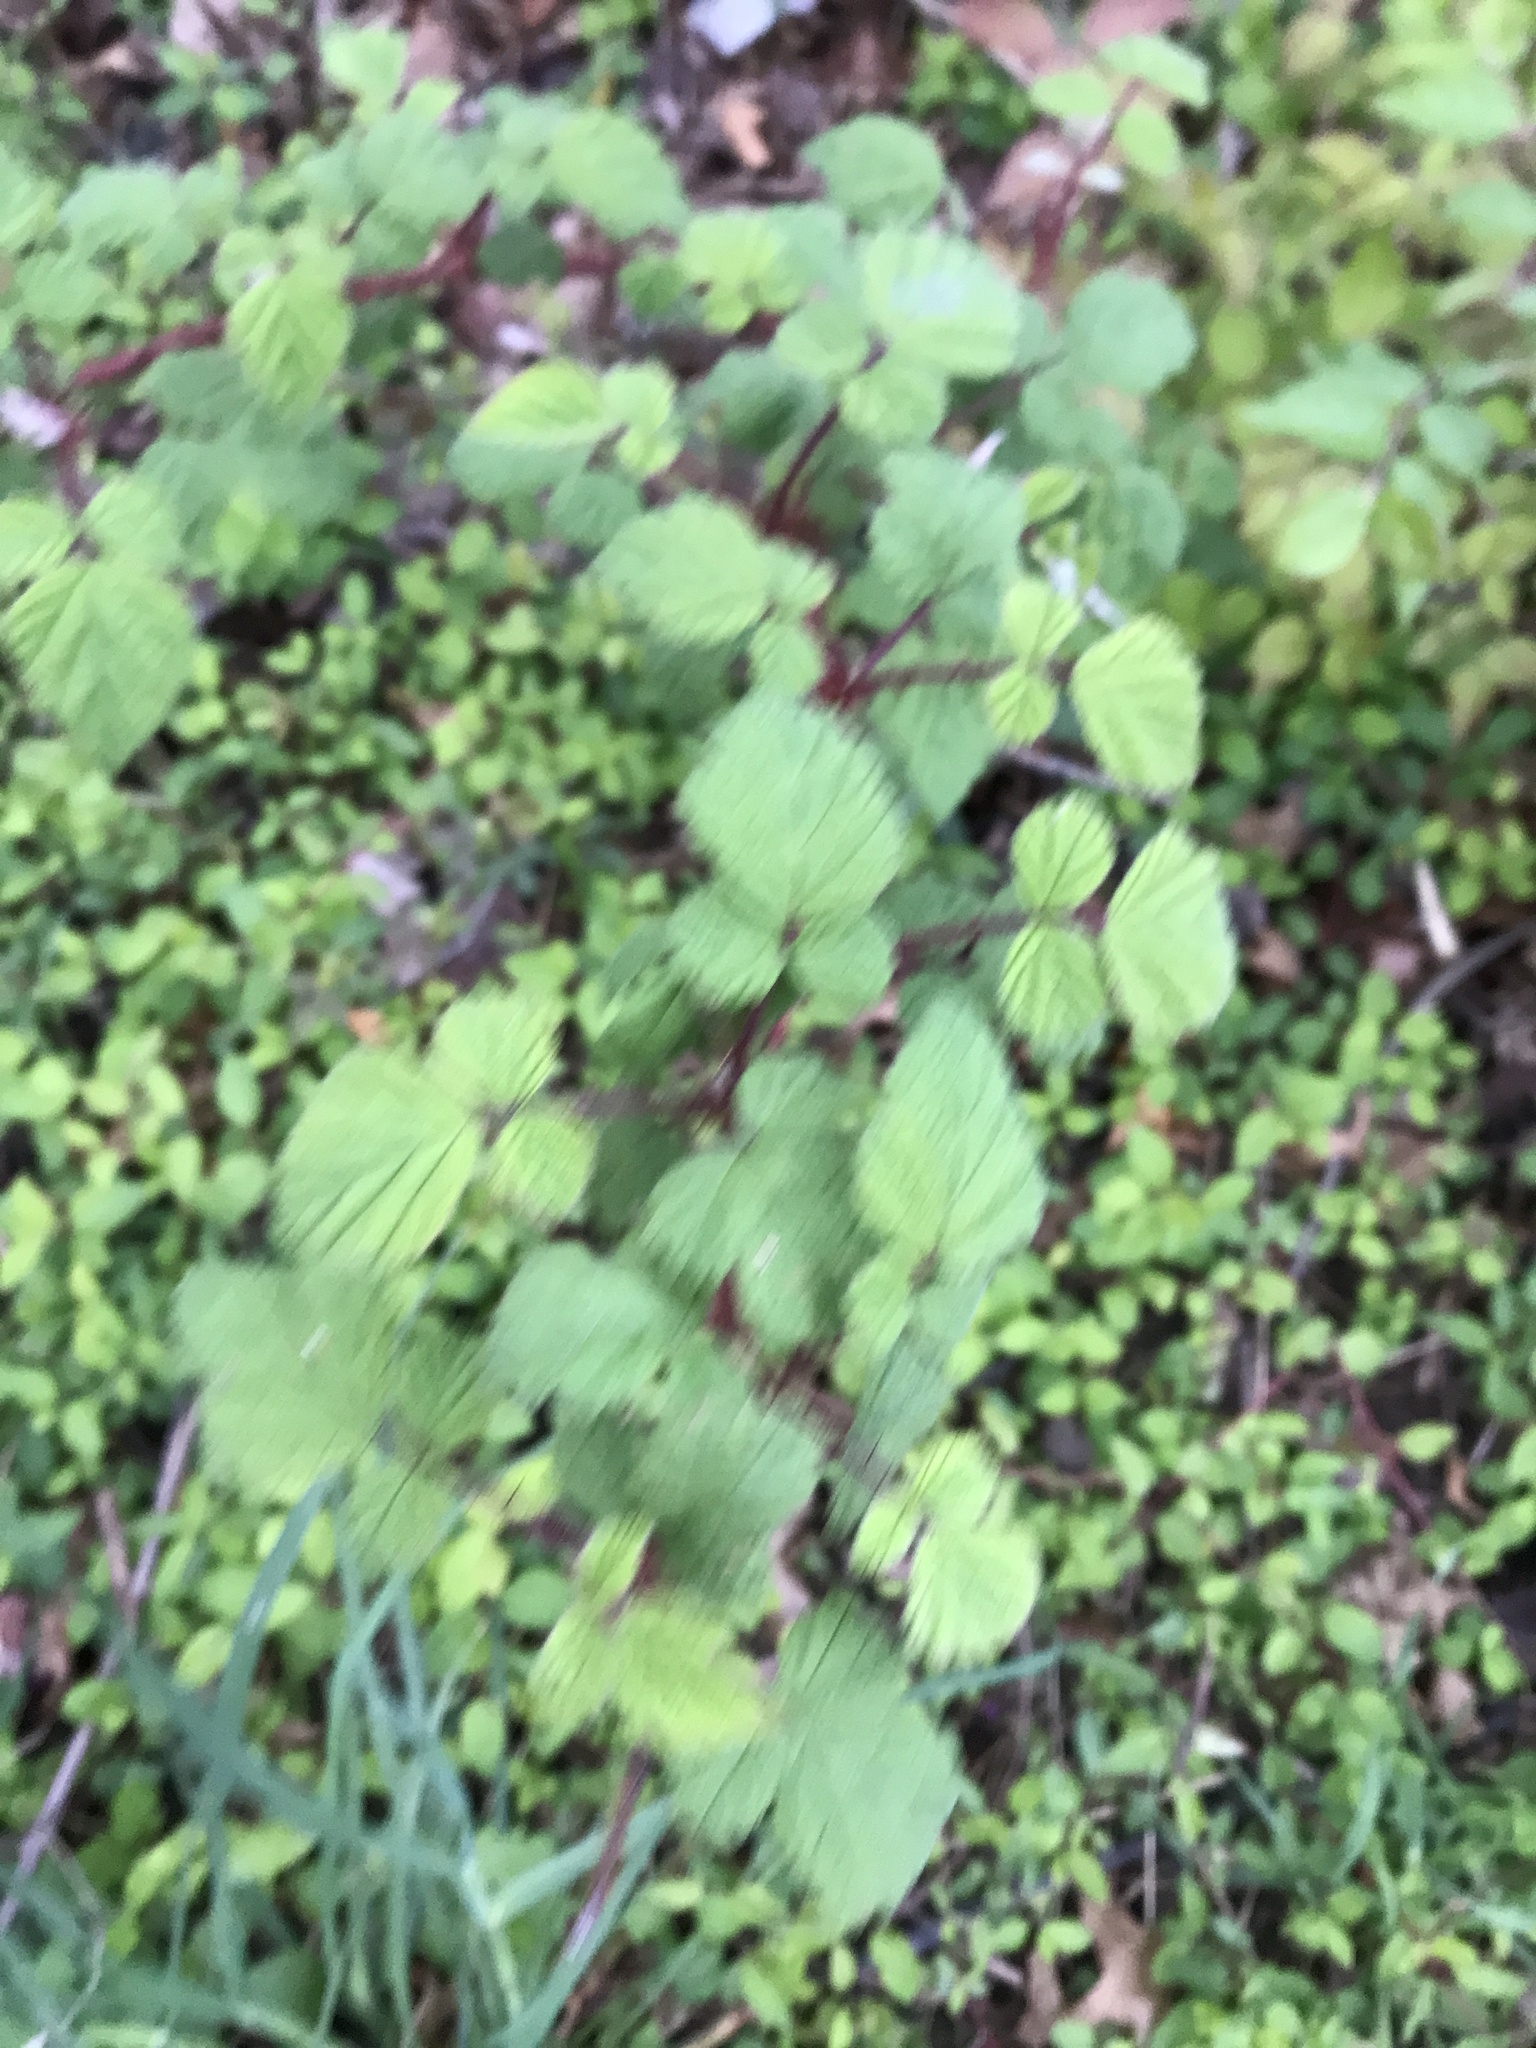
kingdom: Plantae
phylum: Tracheophyta
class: Magnoliopsida
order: Rosales
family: Rosaceae
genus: Rubus
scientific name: Rubus phoenicolasius
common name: Japanese wineberry
